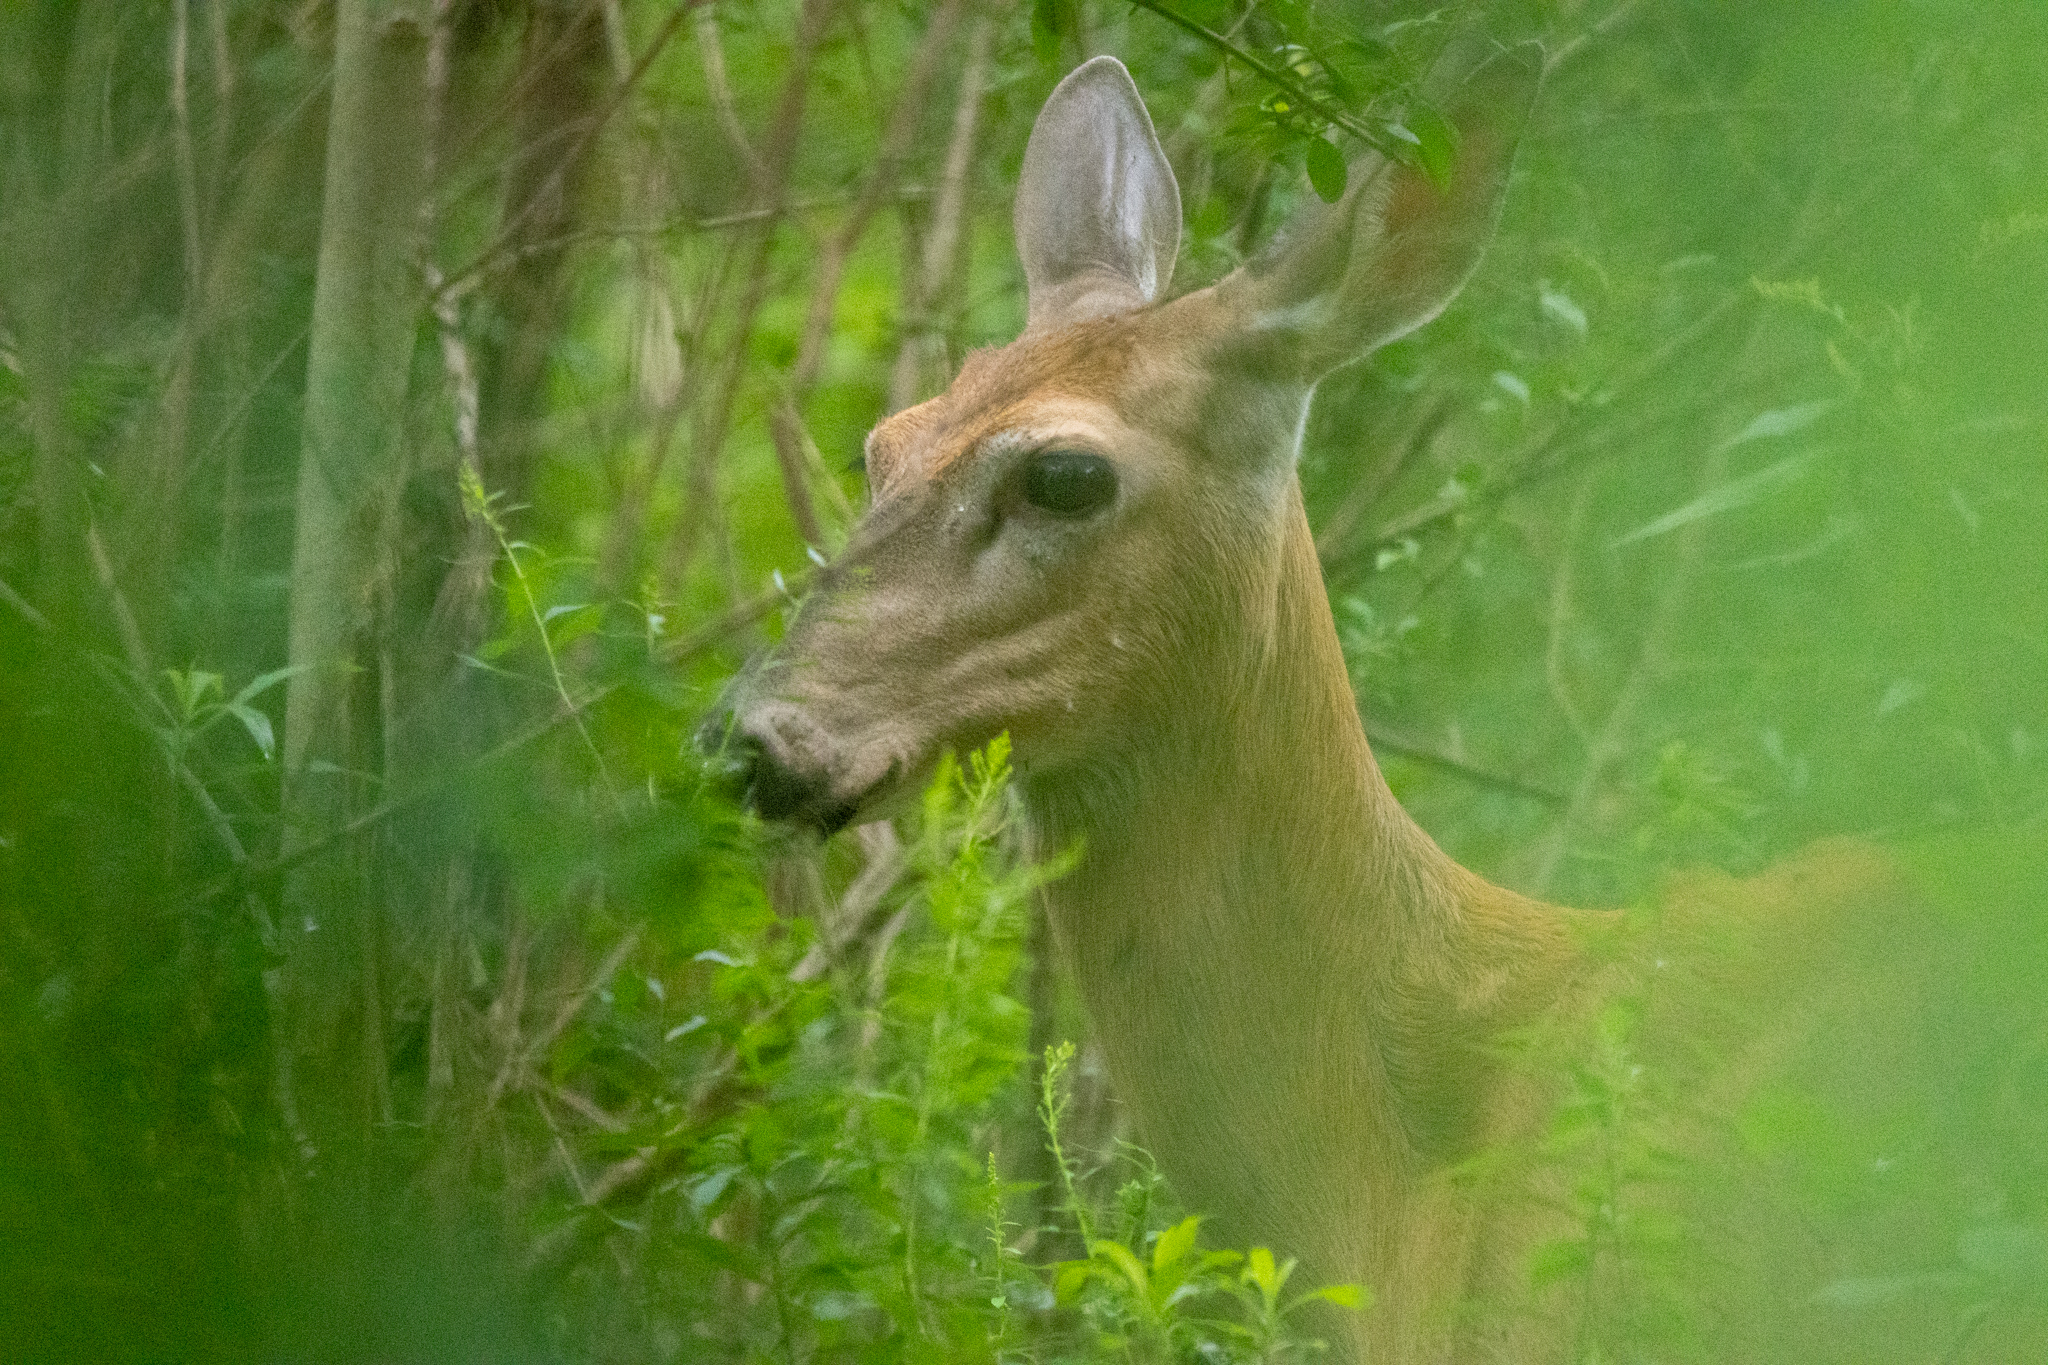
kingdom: Animalia
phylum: Chordata
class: Mammalia
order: Artiodactyla
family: Cervidae
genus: Odocoileus
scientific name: Odocoileus virginianus
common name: White-tailed deer
